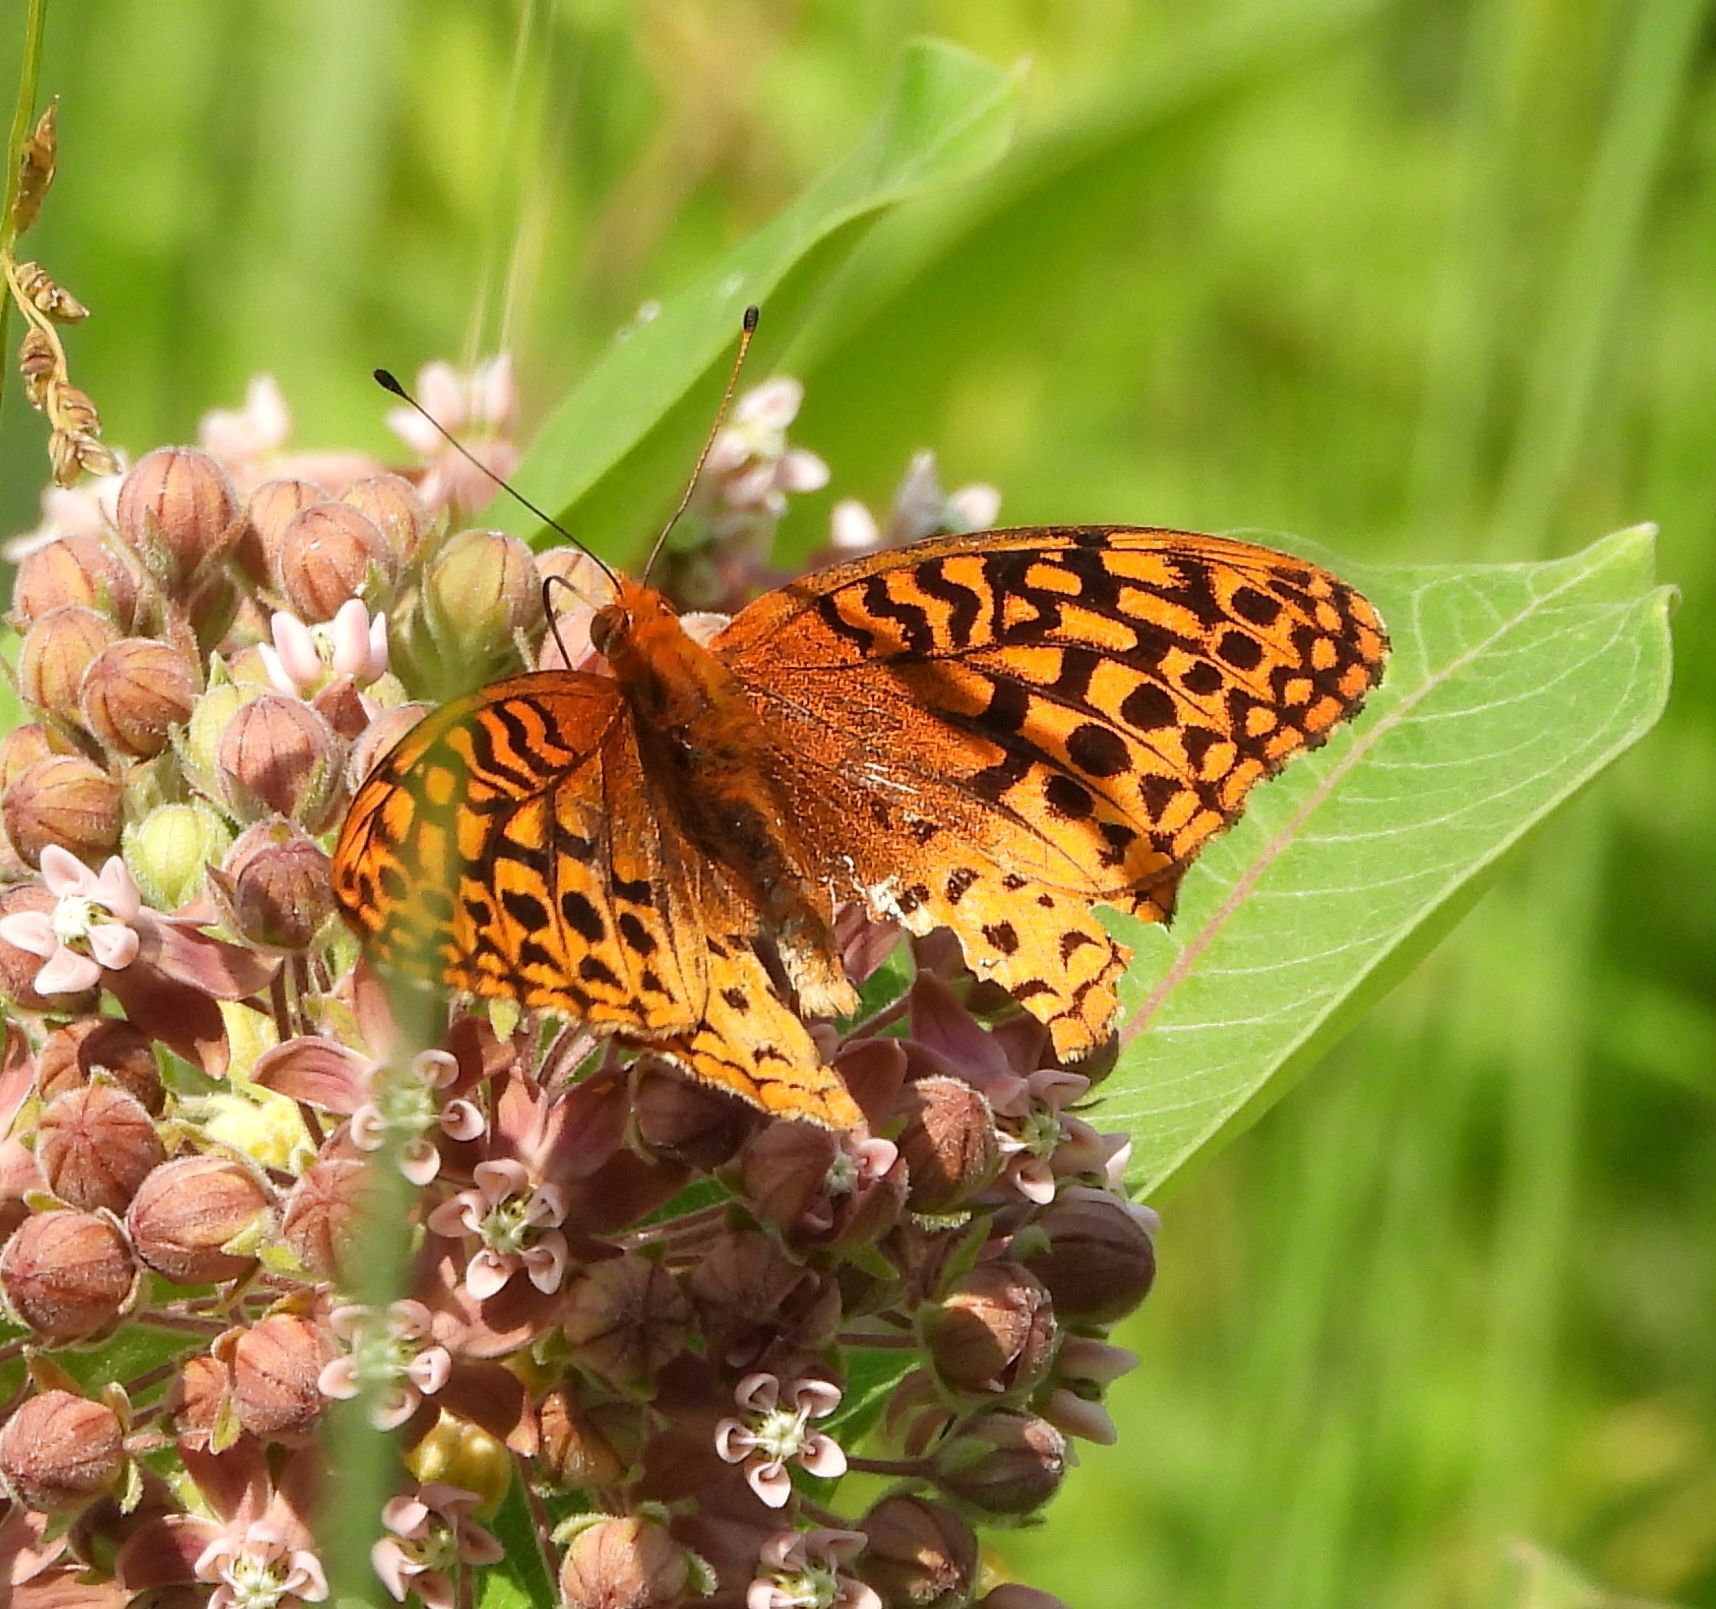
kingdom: Animalia
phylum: Arthropoda
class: Insecta
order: Lepidoptera
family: Nymphalidae
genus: Speyeria
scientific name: Speyeria cybele
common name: Great spangled fritillary
